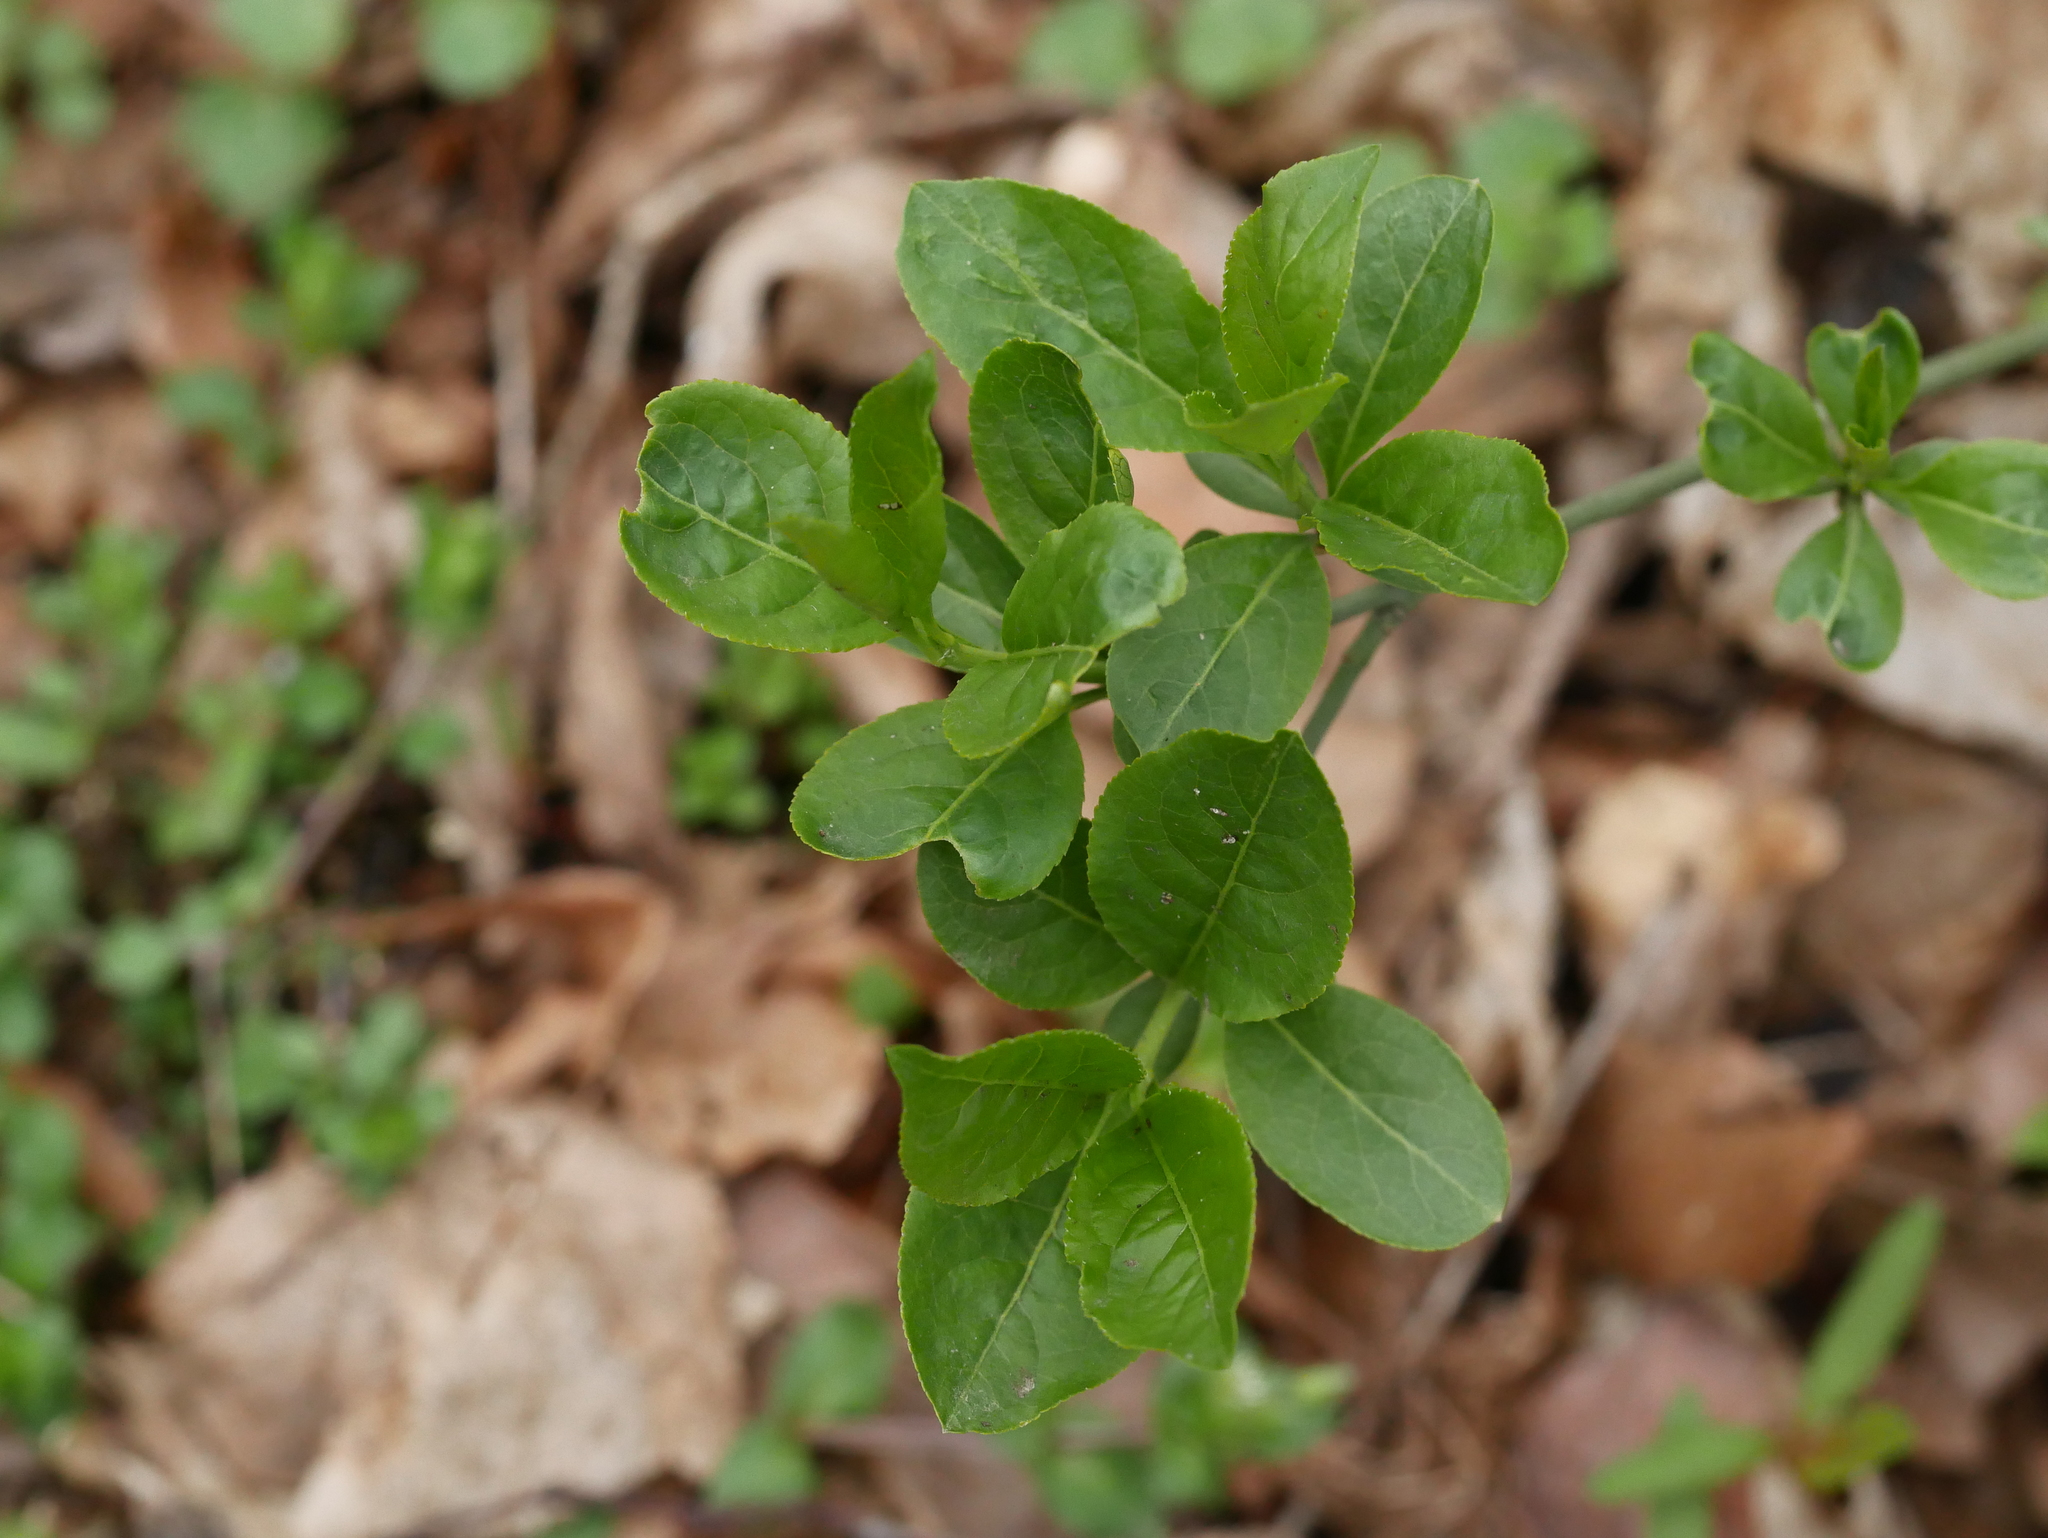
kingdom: Plantae
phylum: Tracheophyta
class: Magnoliopsida
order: Celastrales
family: Celastraceae
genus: Euonymus
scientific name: Euonymus europaeus
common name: Spindle
